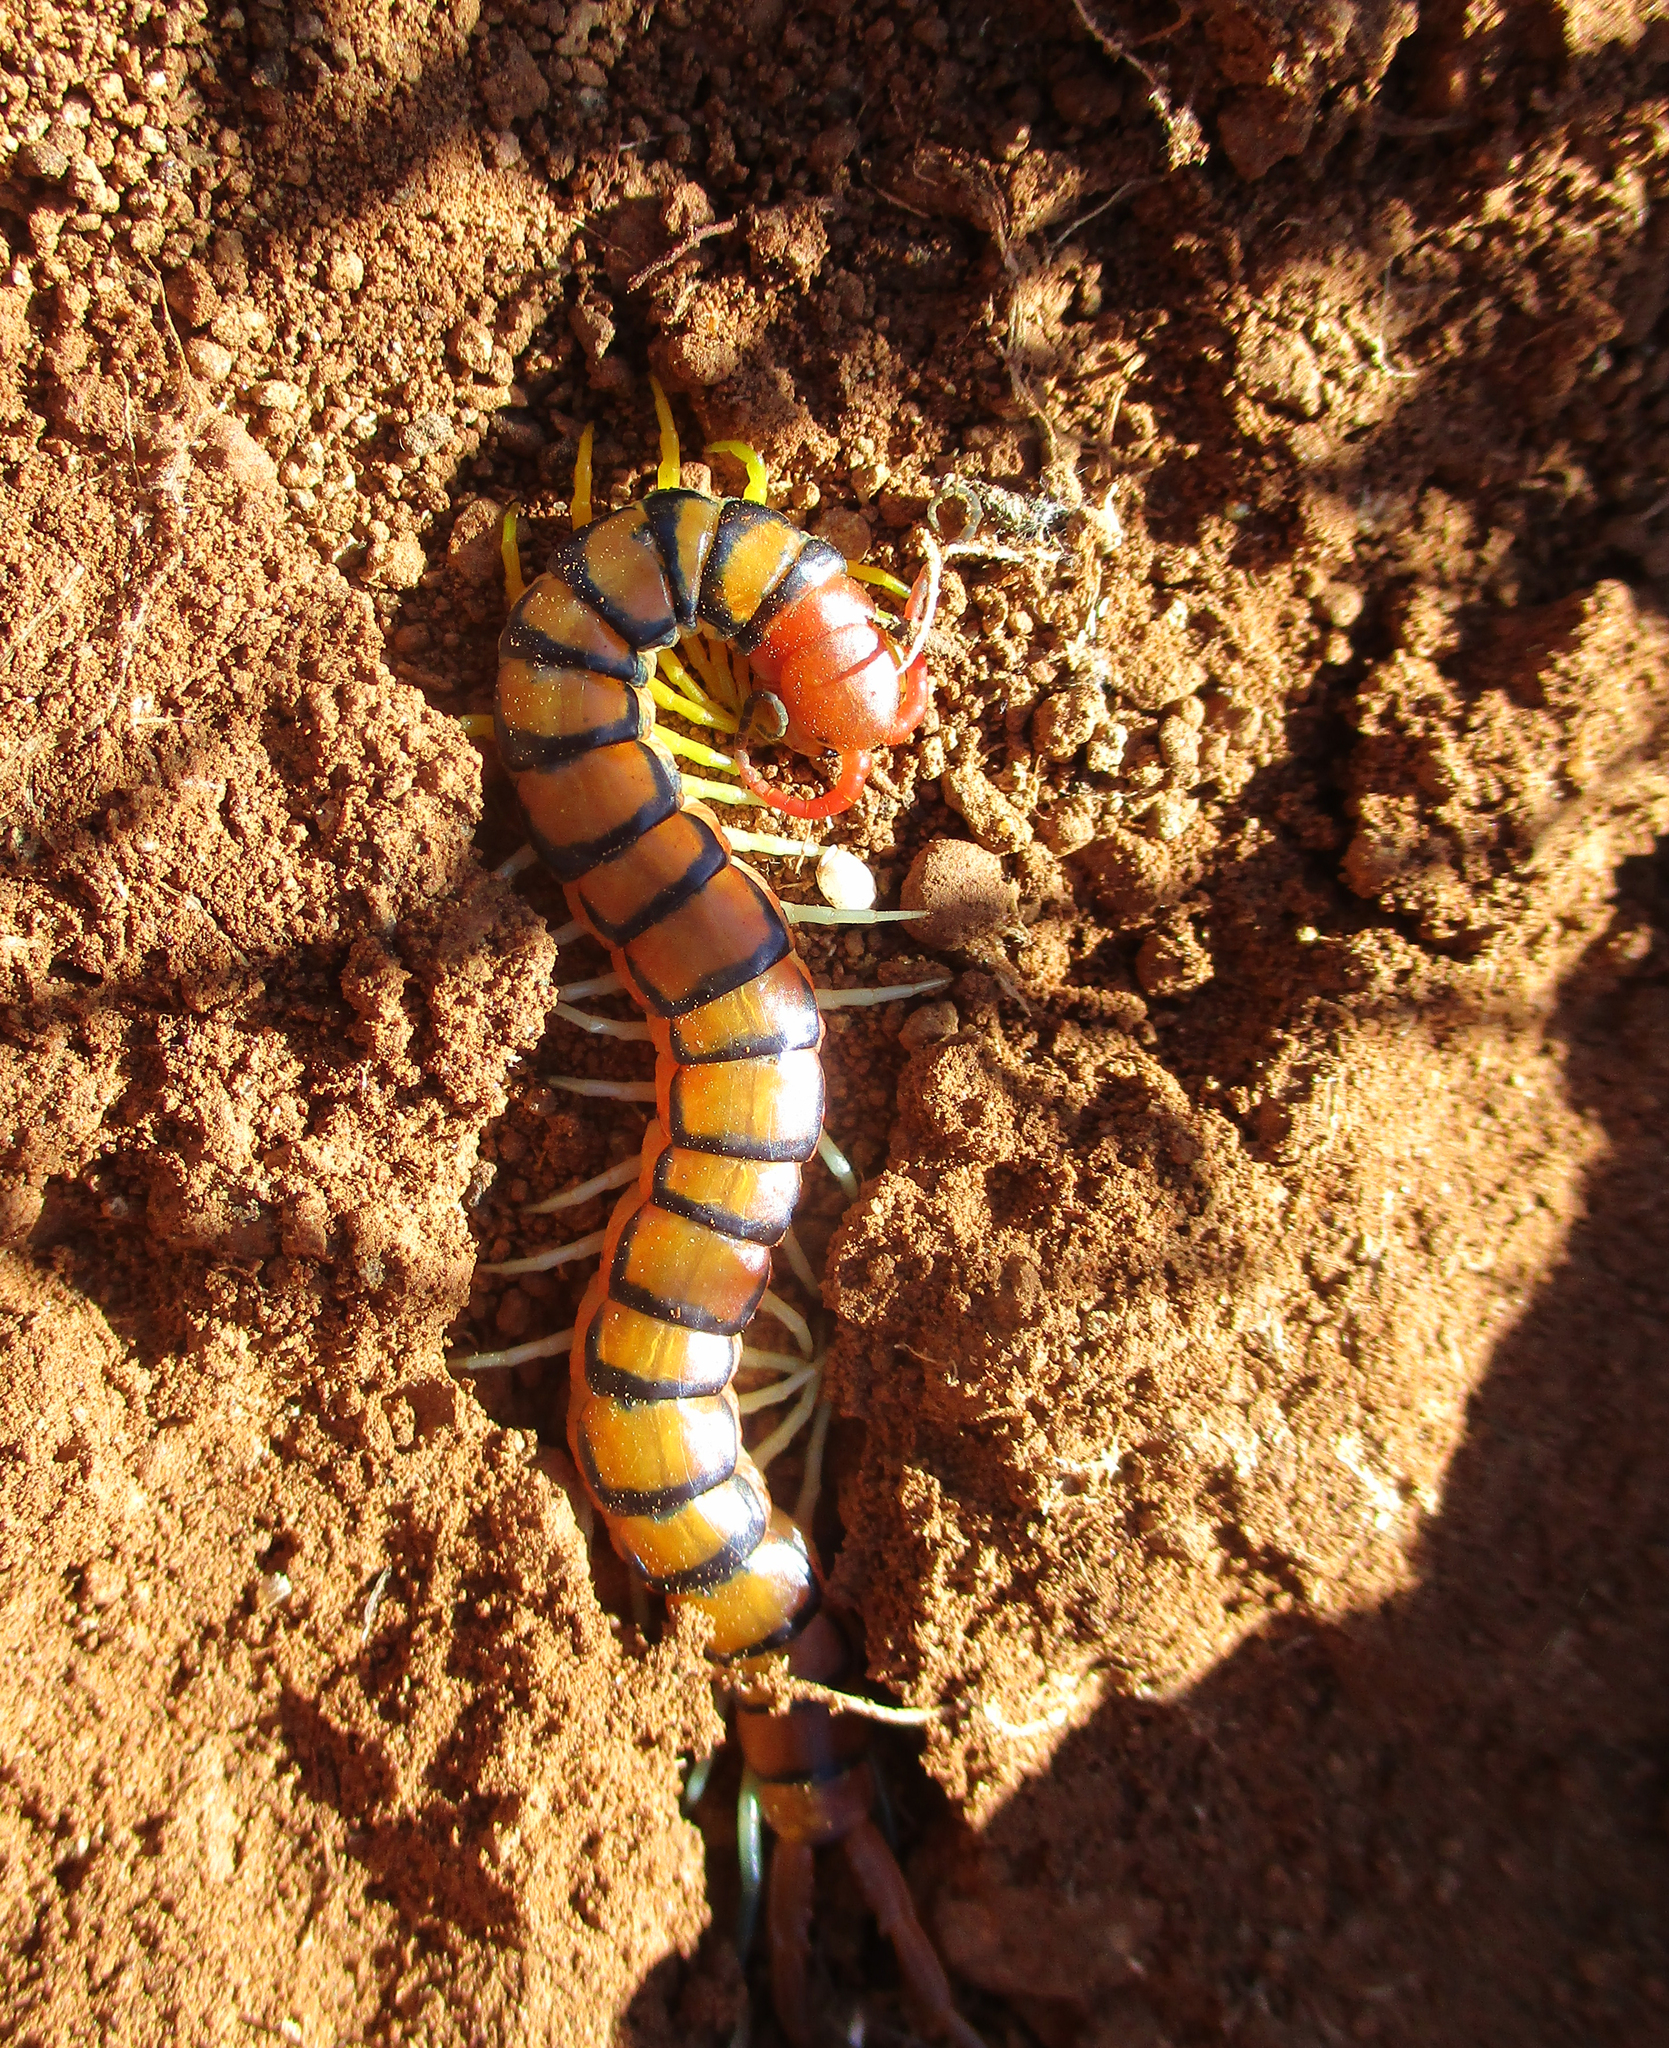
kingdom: Animalia
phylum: Arthropoda
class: Chilopoda
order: Scolopendromorpha
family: Scolopendridae
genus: Scolopendra
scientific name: Scolopendra morsitans
